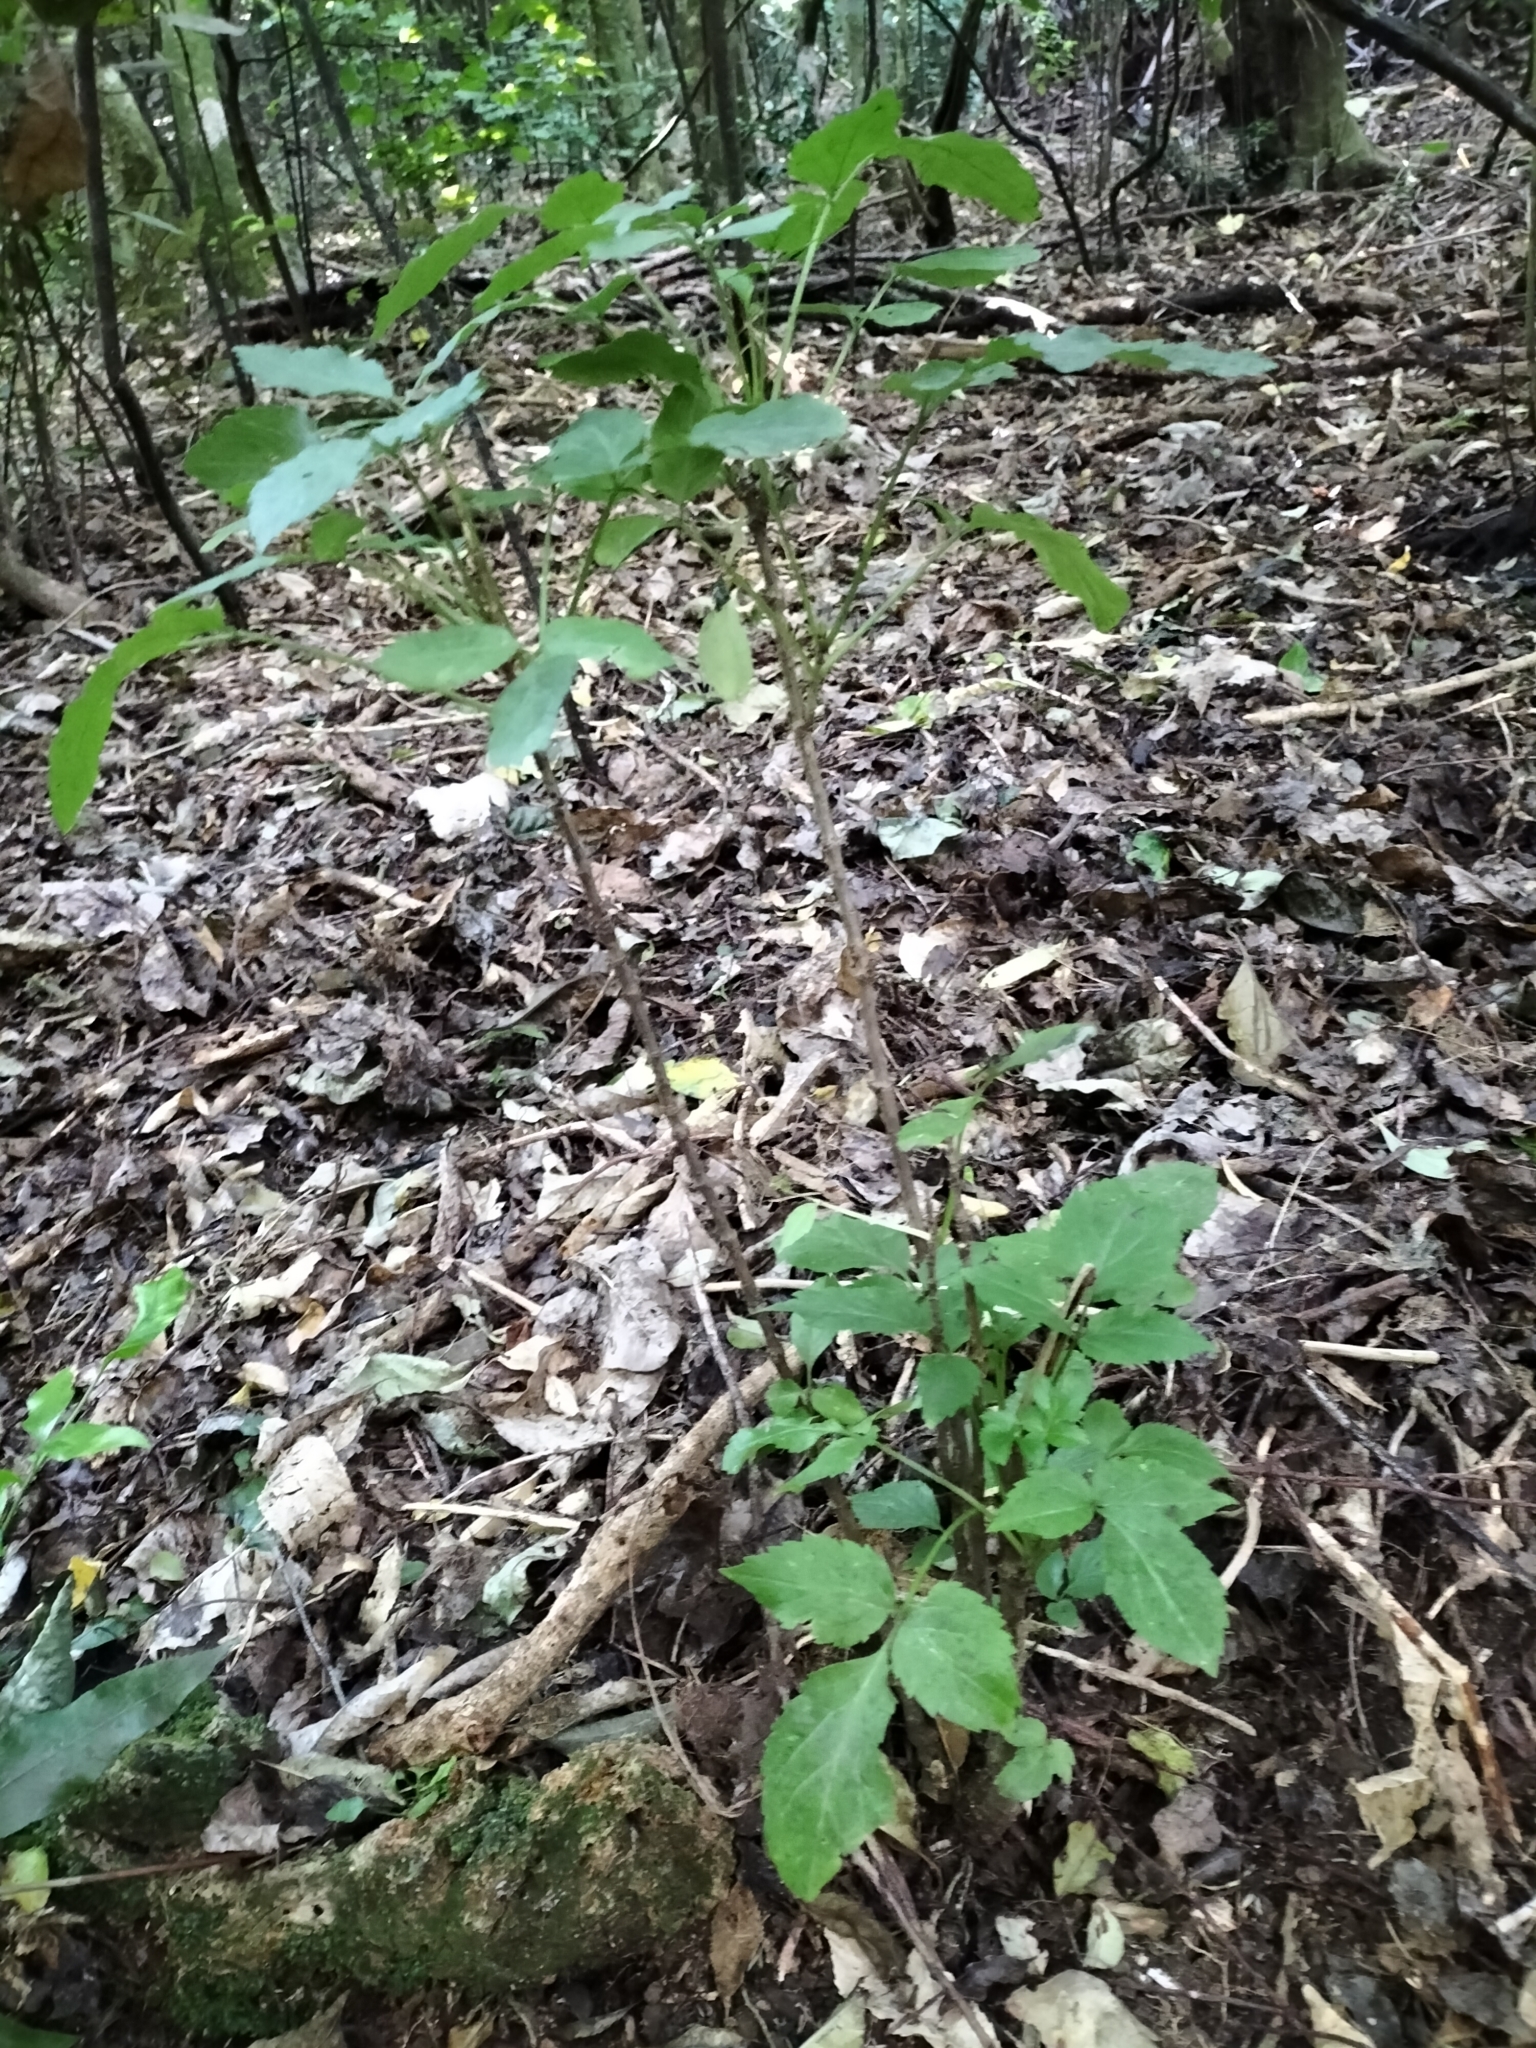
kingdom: Plantae
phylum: Tracheophyta
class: Magnoliopsida
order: Dipsacales
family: Viburnaceae
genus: Sambucus
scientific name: Sambucus nigra
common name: Elder
